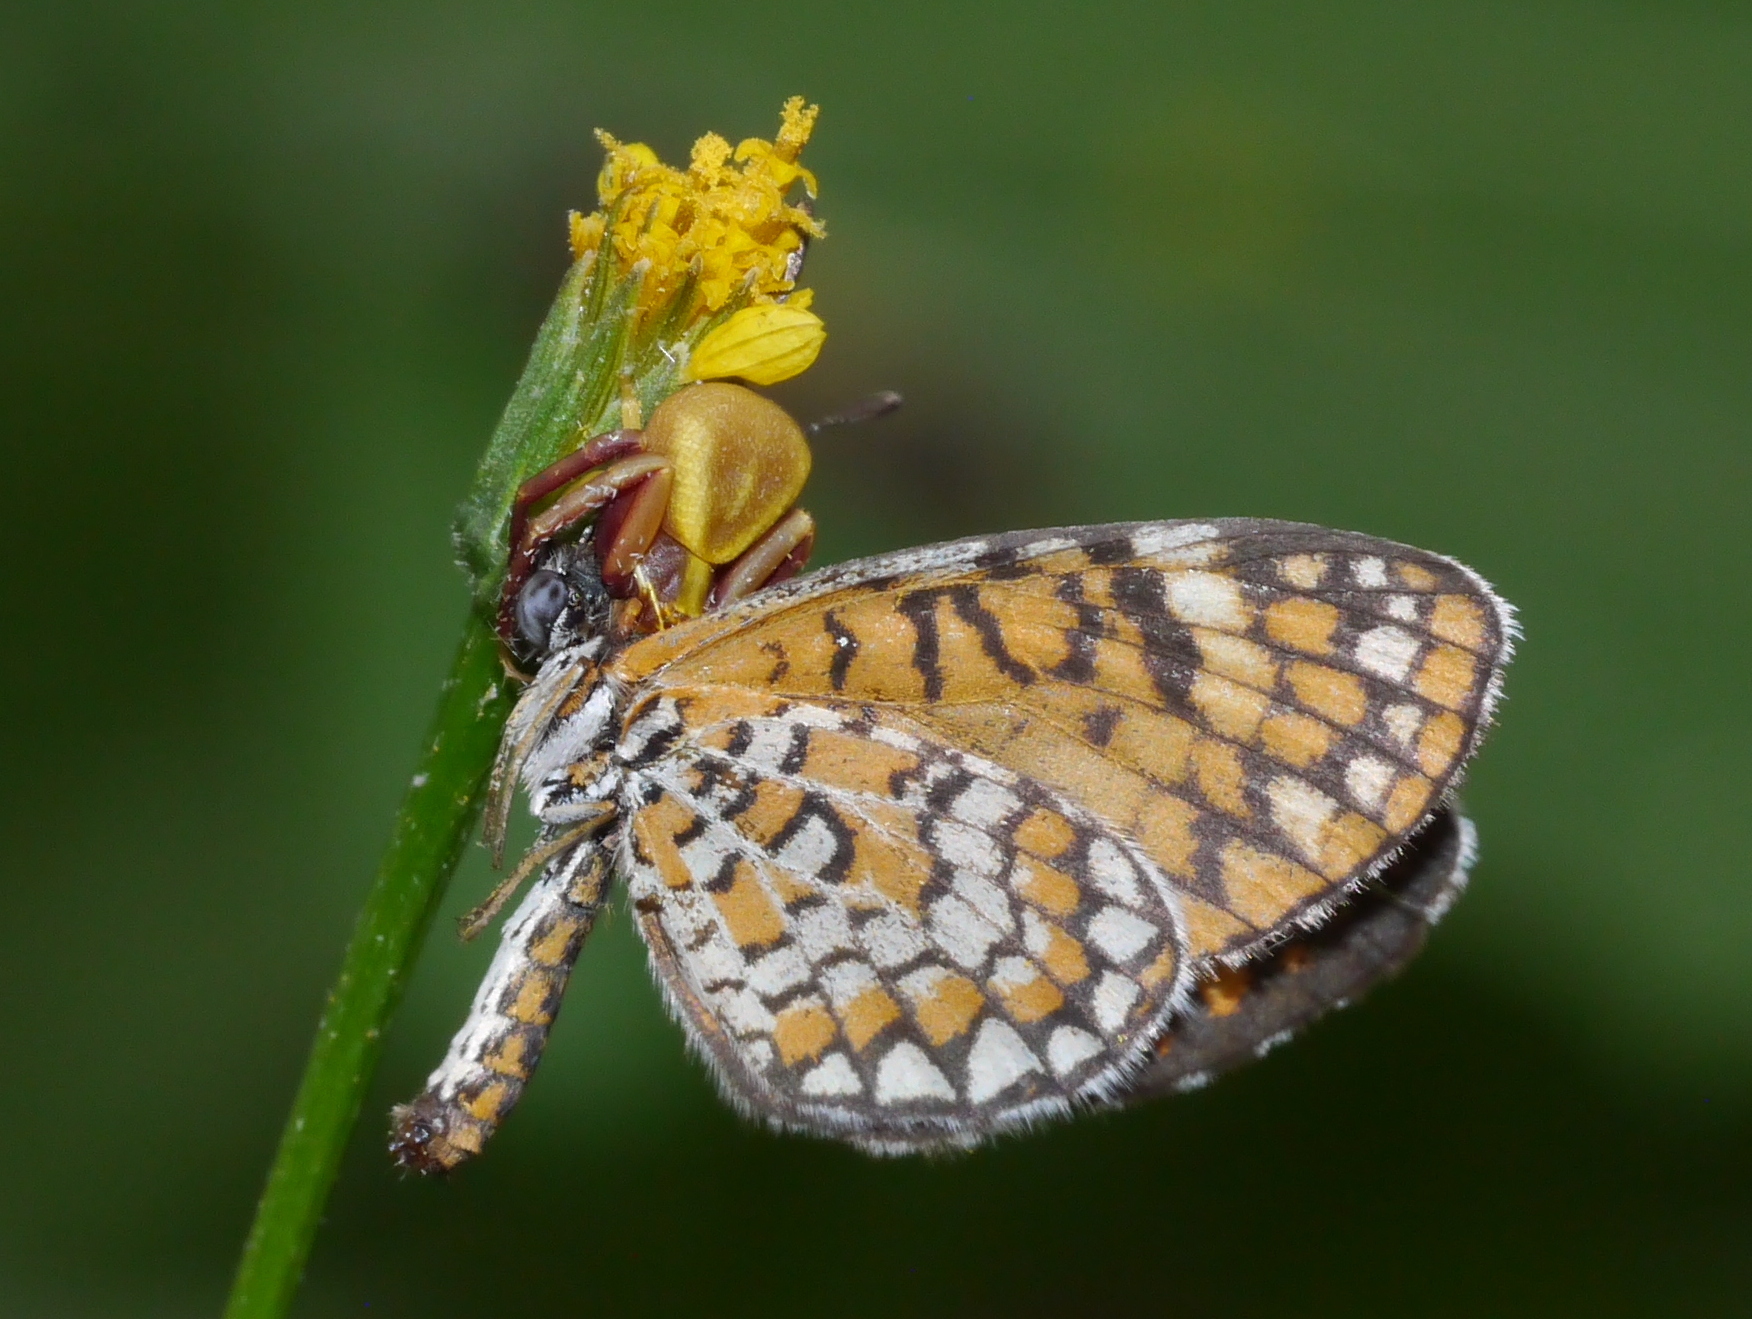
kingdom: Animalia
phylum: Arthropoda
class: Arachnida
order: Araneae
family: Thomisidae
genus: Misumenoides
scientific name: Misumenoides formosipes
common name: White-banded crab spider
